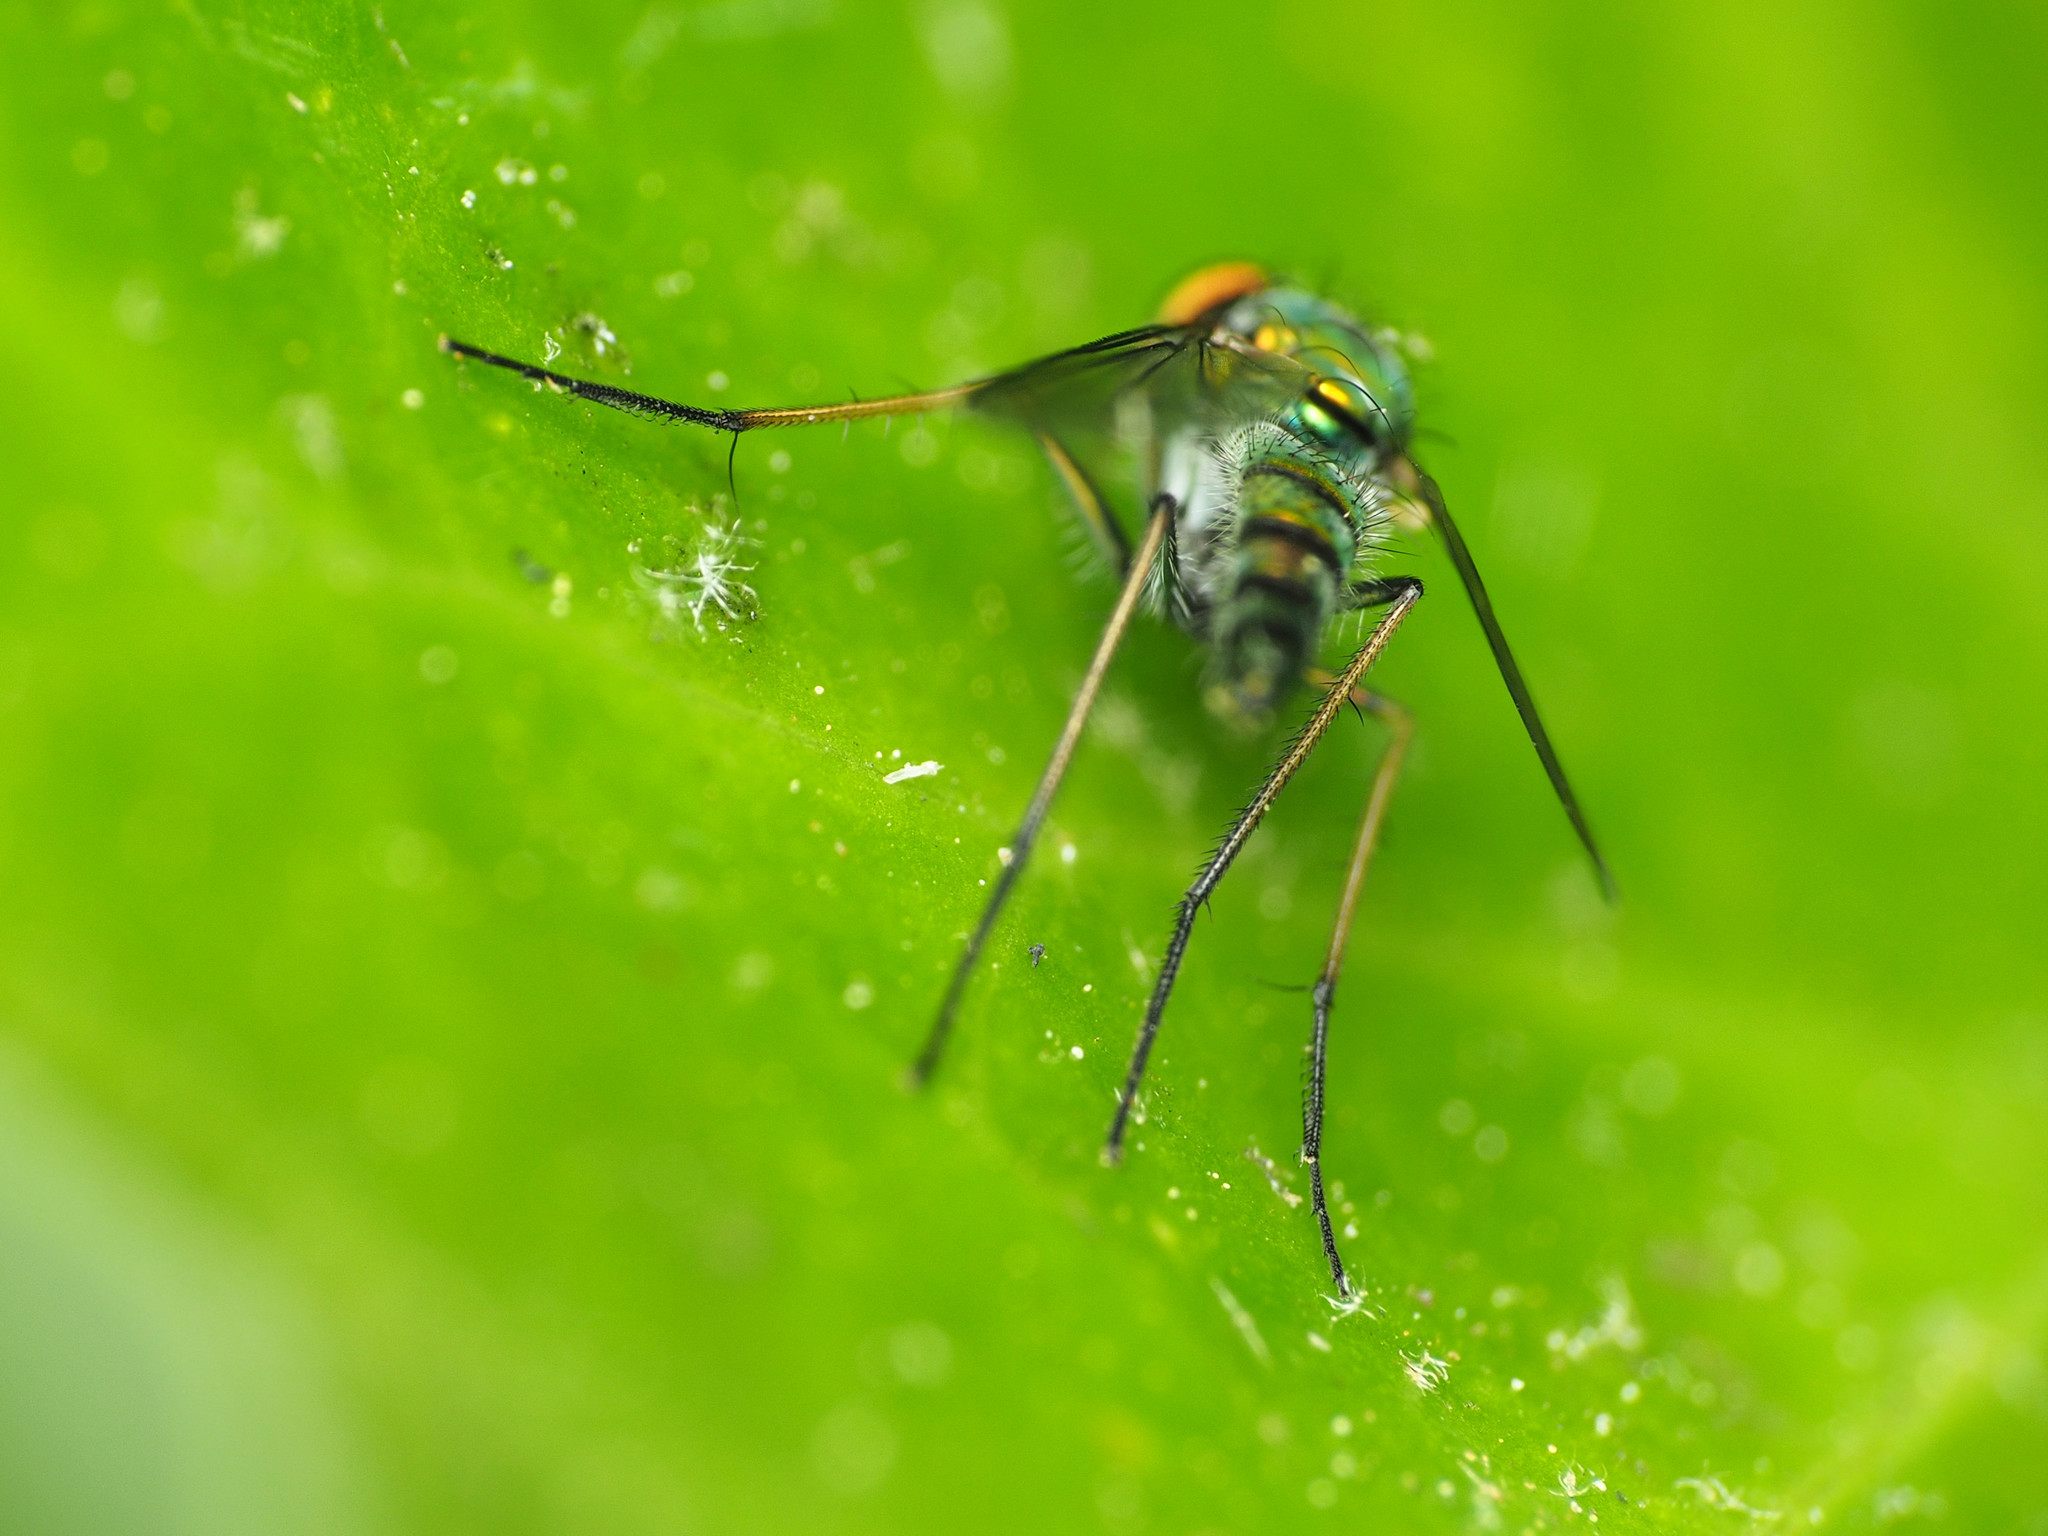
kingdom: Animalia
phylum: Arthropoda
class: Insecta
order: Diptera
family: Dolichopodidae
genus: Condylostylus
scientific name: Condylostylus connectans
